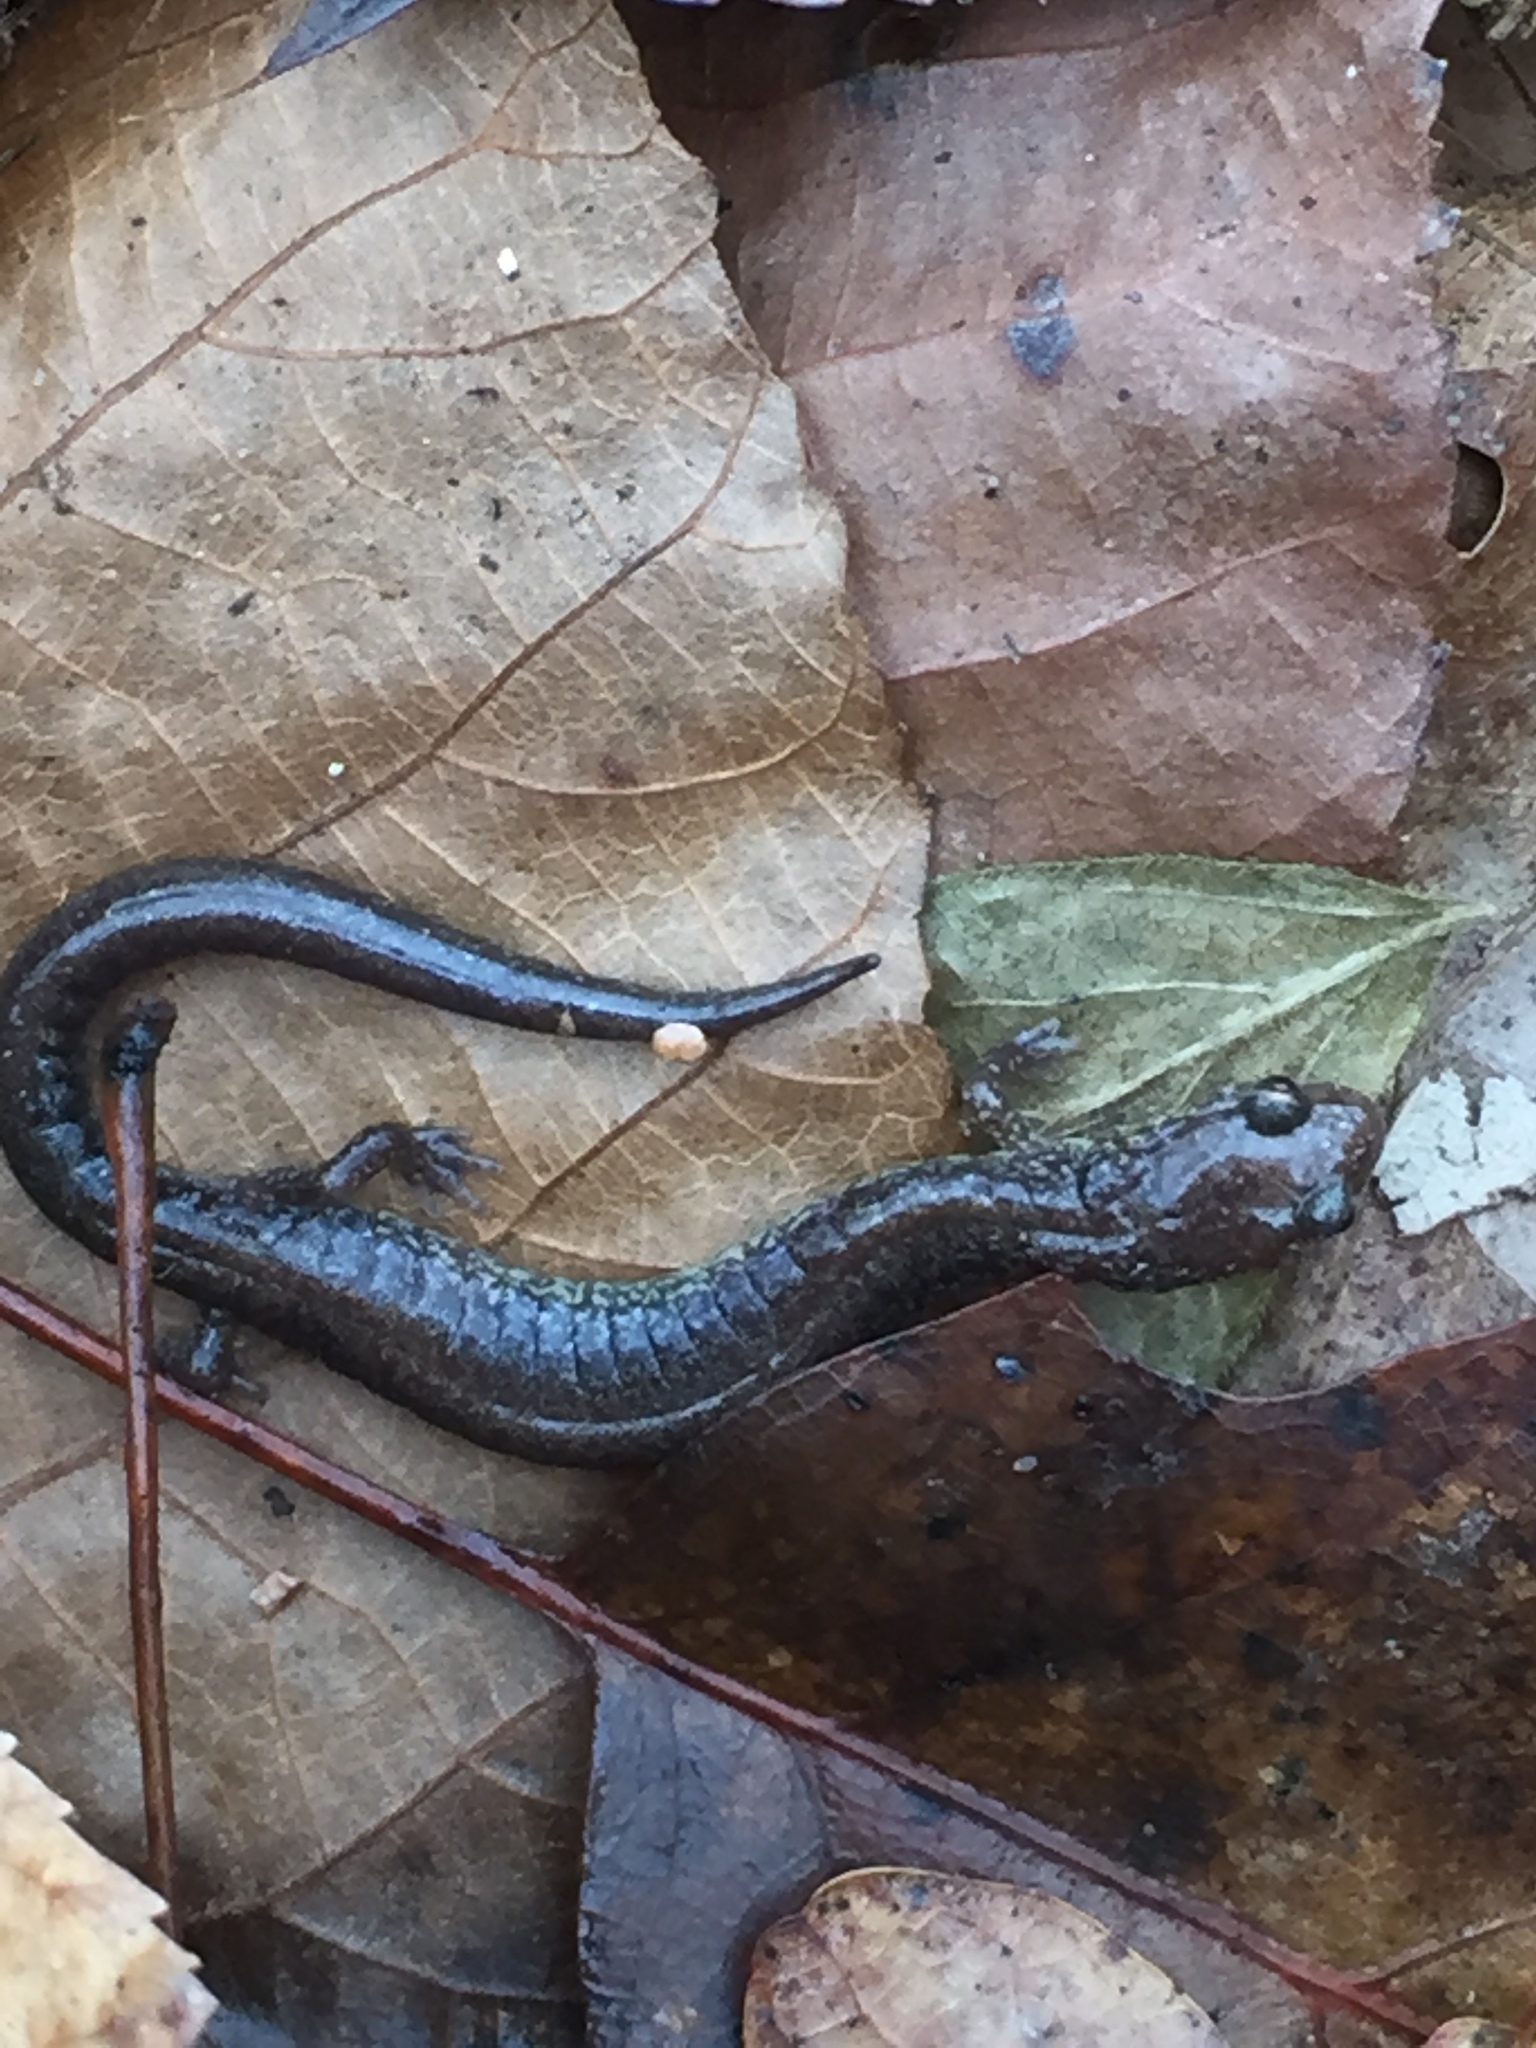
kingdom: Animalia
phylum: Chordata
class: Amphibia
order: Caudata
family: Plethodontidae
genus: Plethodon
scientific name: Plethodon cinereus
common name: Redback salamander
